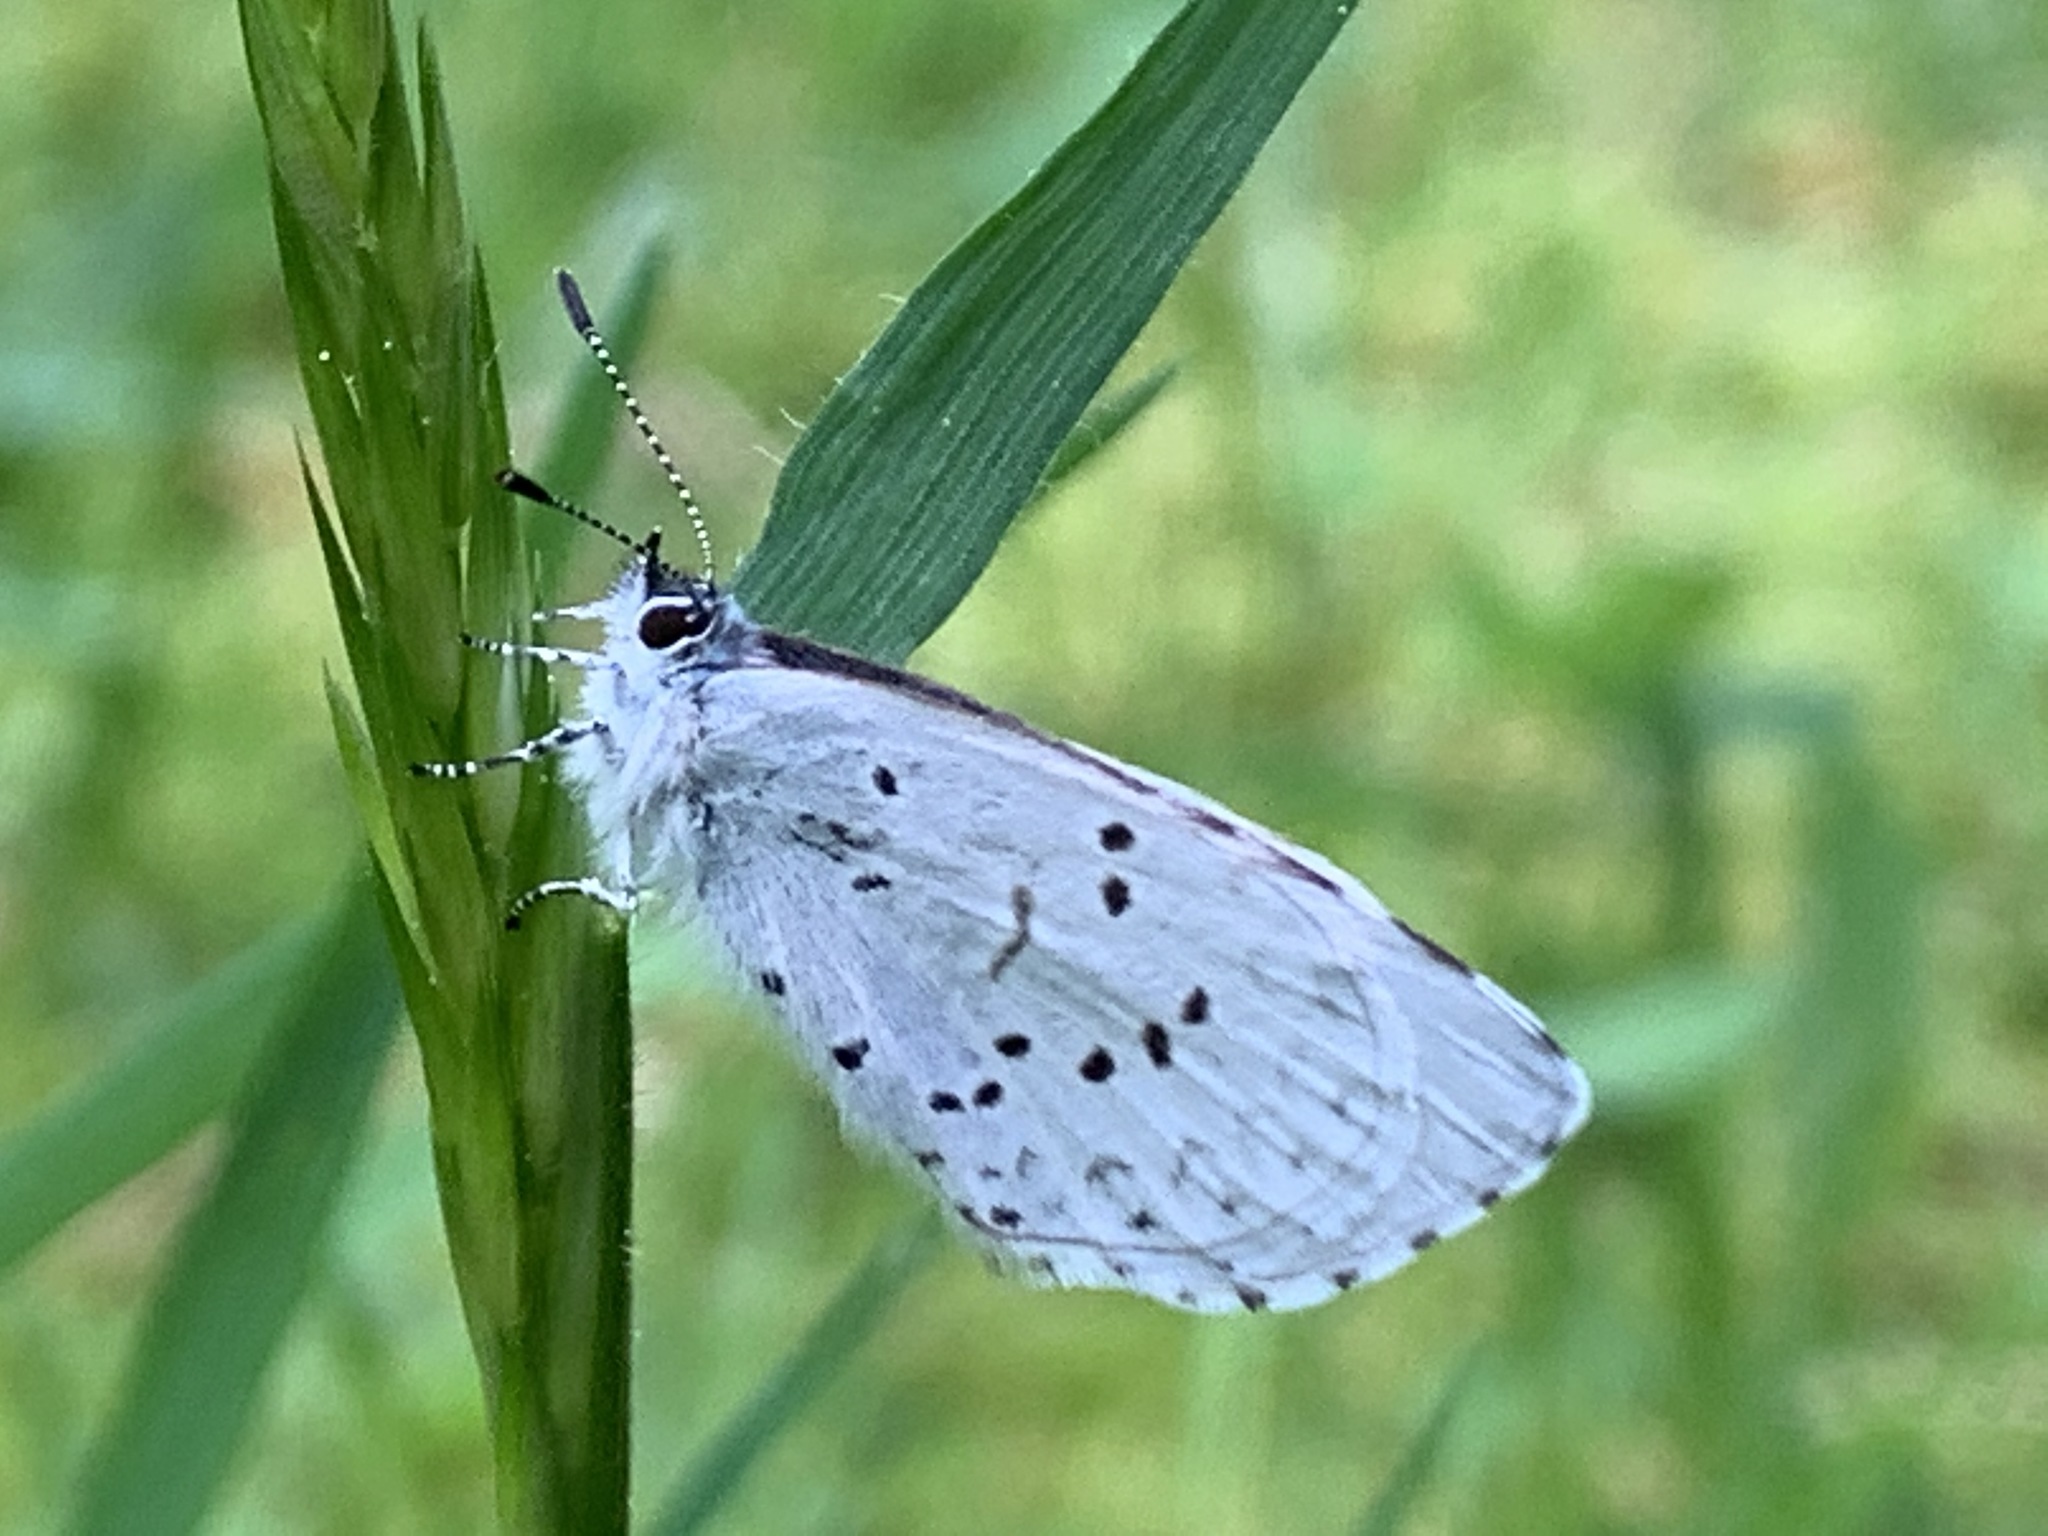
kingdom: Animalia
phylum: Arthropoda
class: Insecta
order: Lepidoptera
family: Lycaenidae
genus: Celastrina
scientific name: Celastrina ladon
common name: Spring azure
